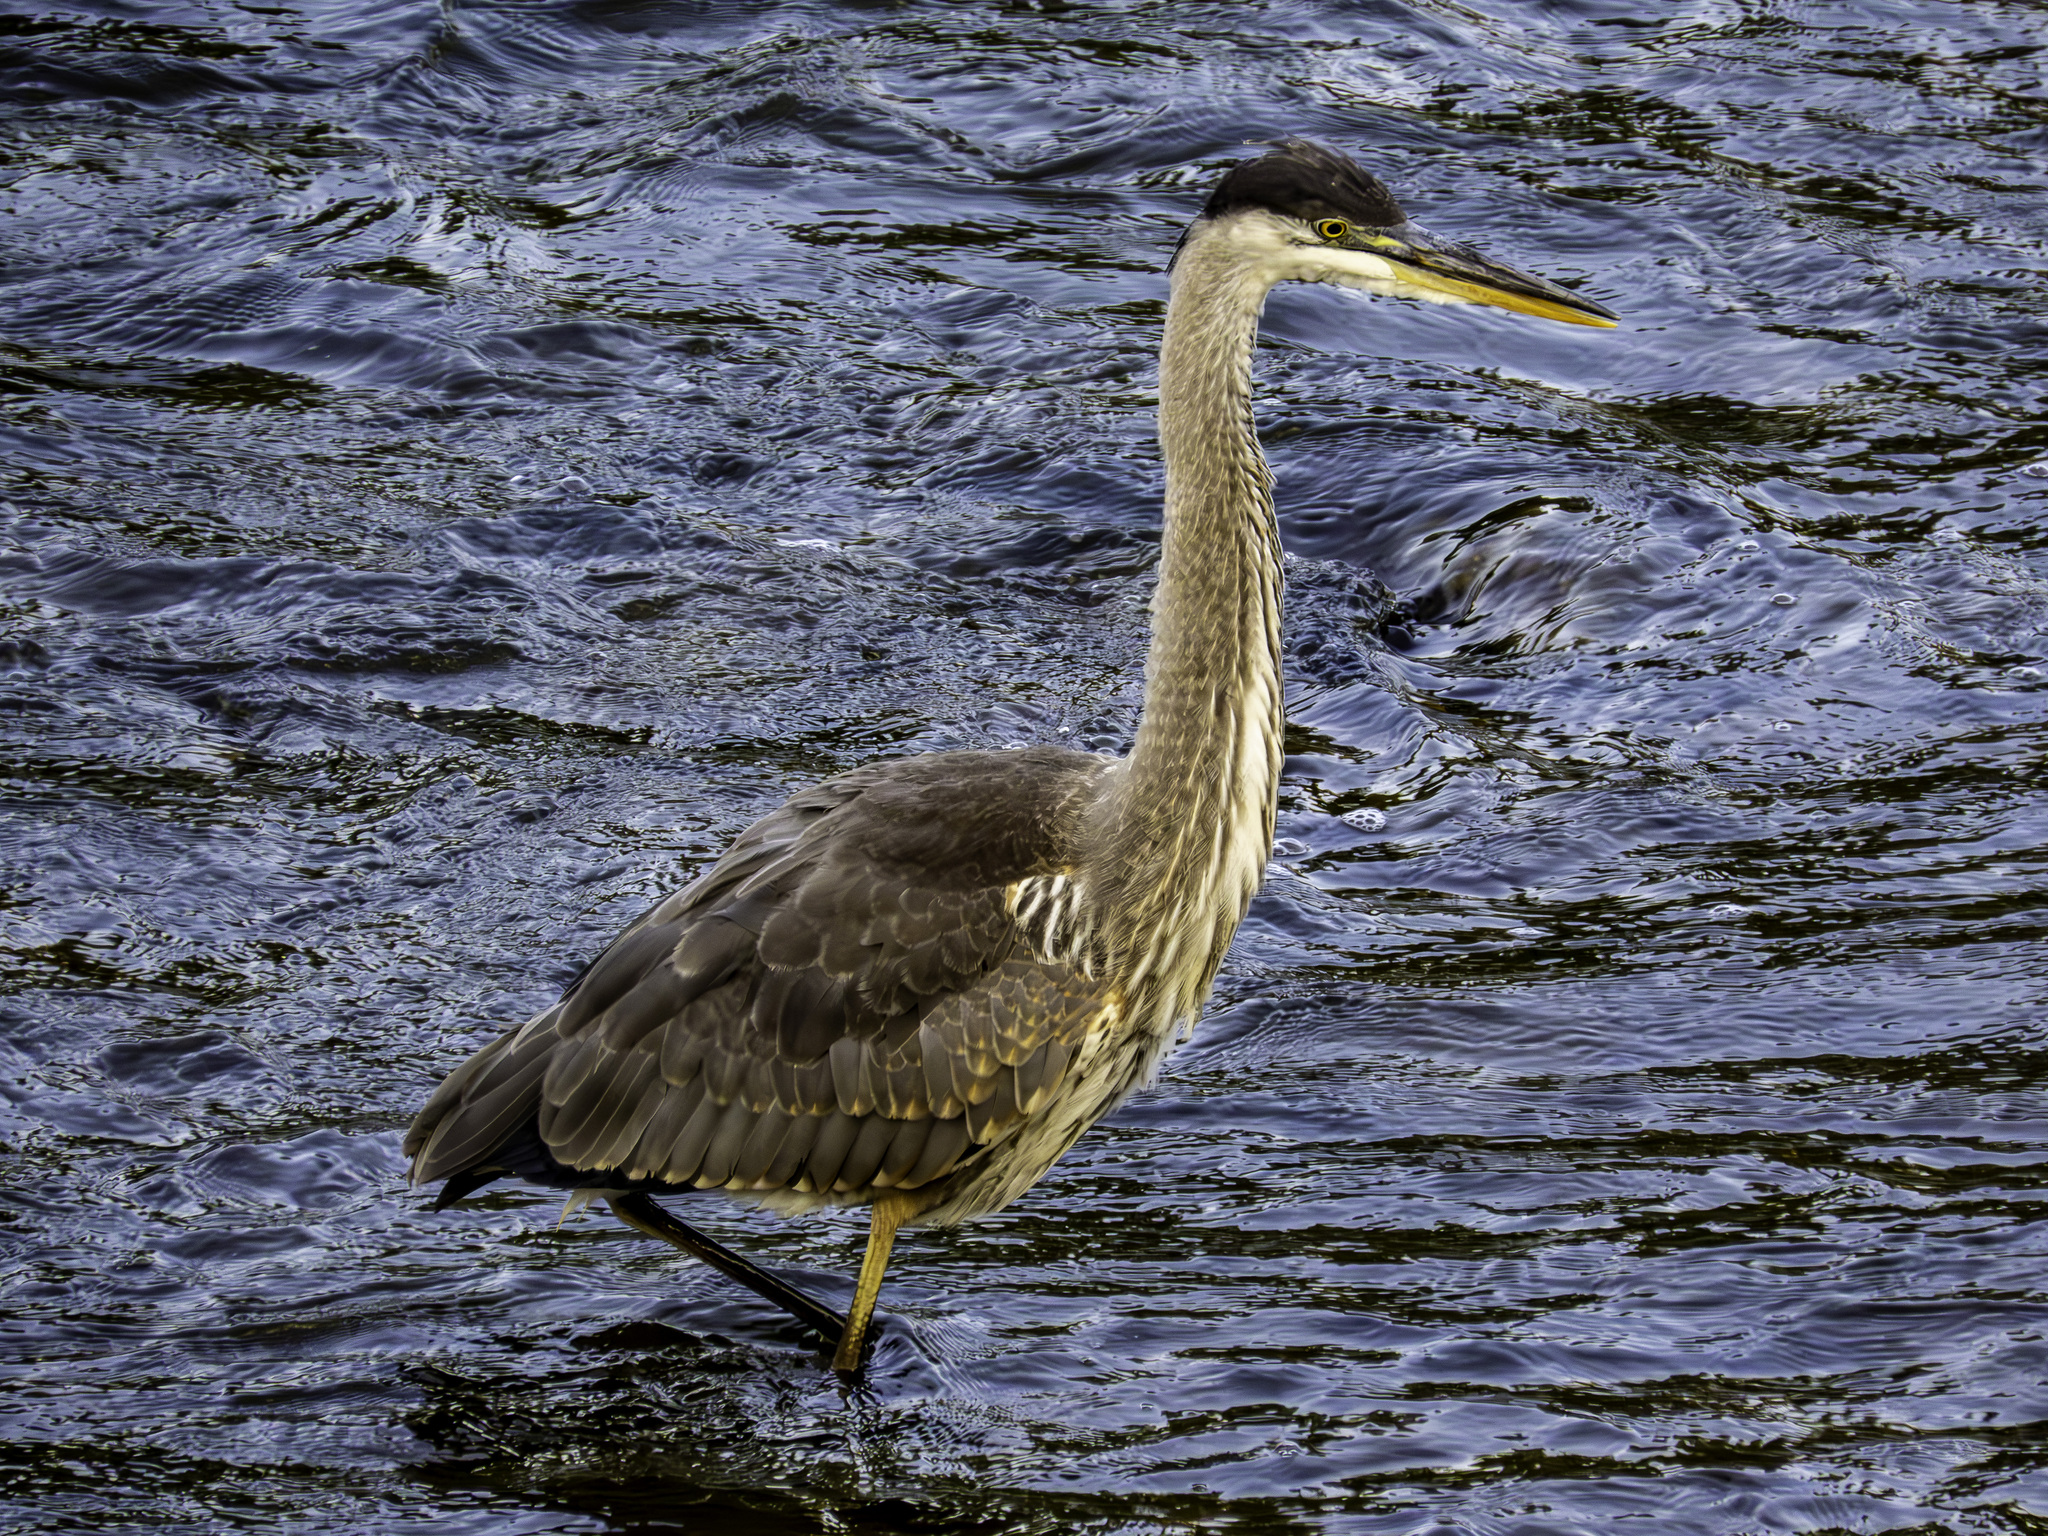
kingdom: Animalia
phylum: Chordata
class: Aves
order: Pelecaniformes
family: Ardeidae
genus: Ardea
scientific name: Ardea herodias
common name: Great blue heron
